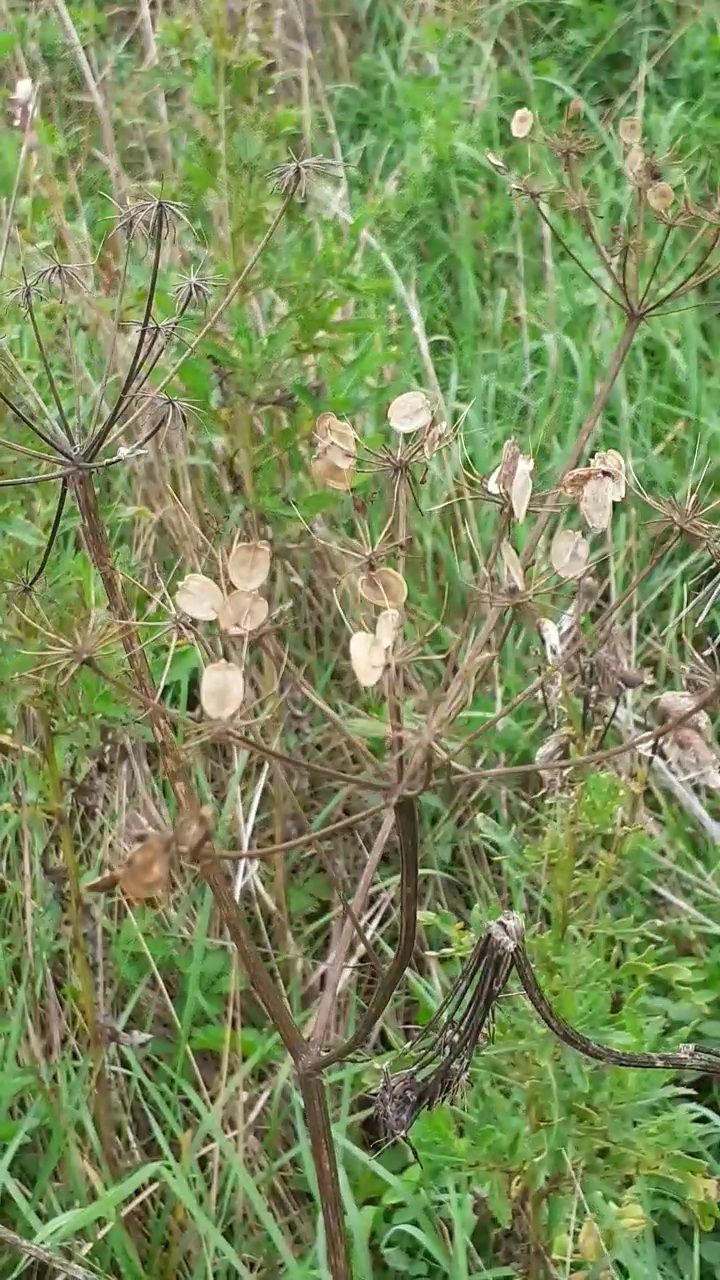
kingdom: Plantae
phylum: Tracheophyta
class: Magnoliopsida
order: Apiales
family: Apiaceae
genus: Heracleum
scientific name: Heracleum sphondylium
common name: Hogweed
